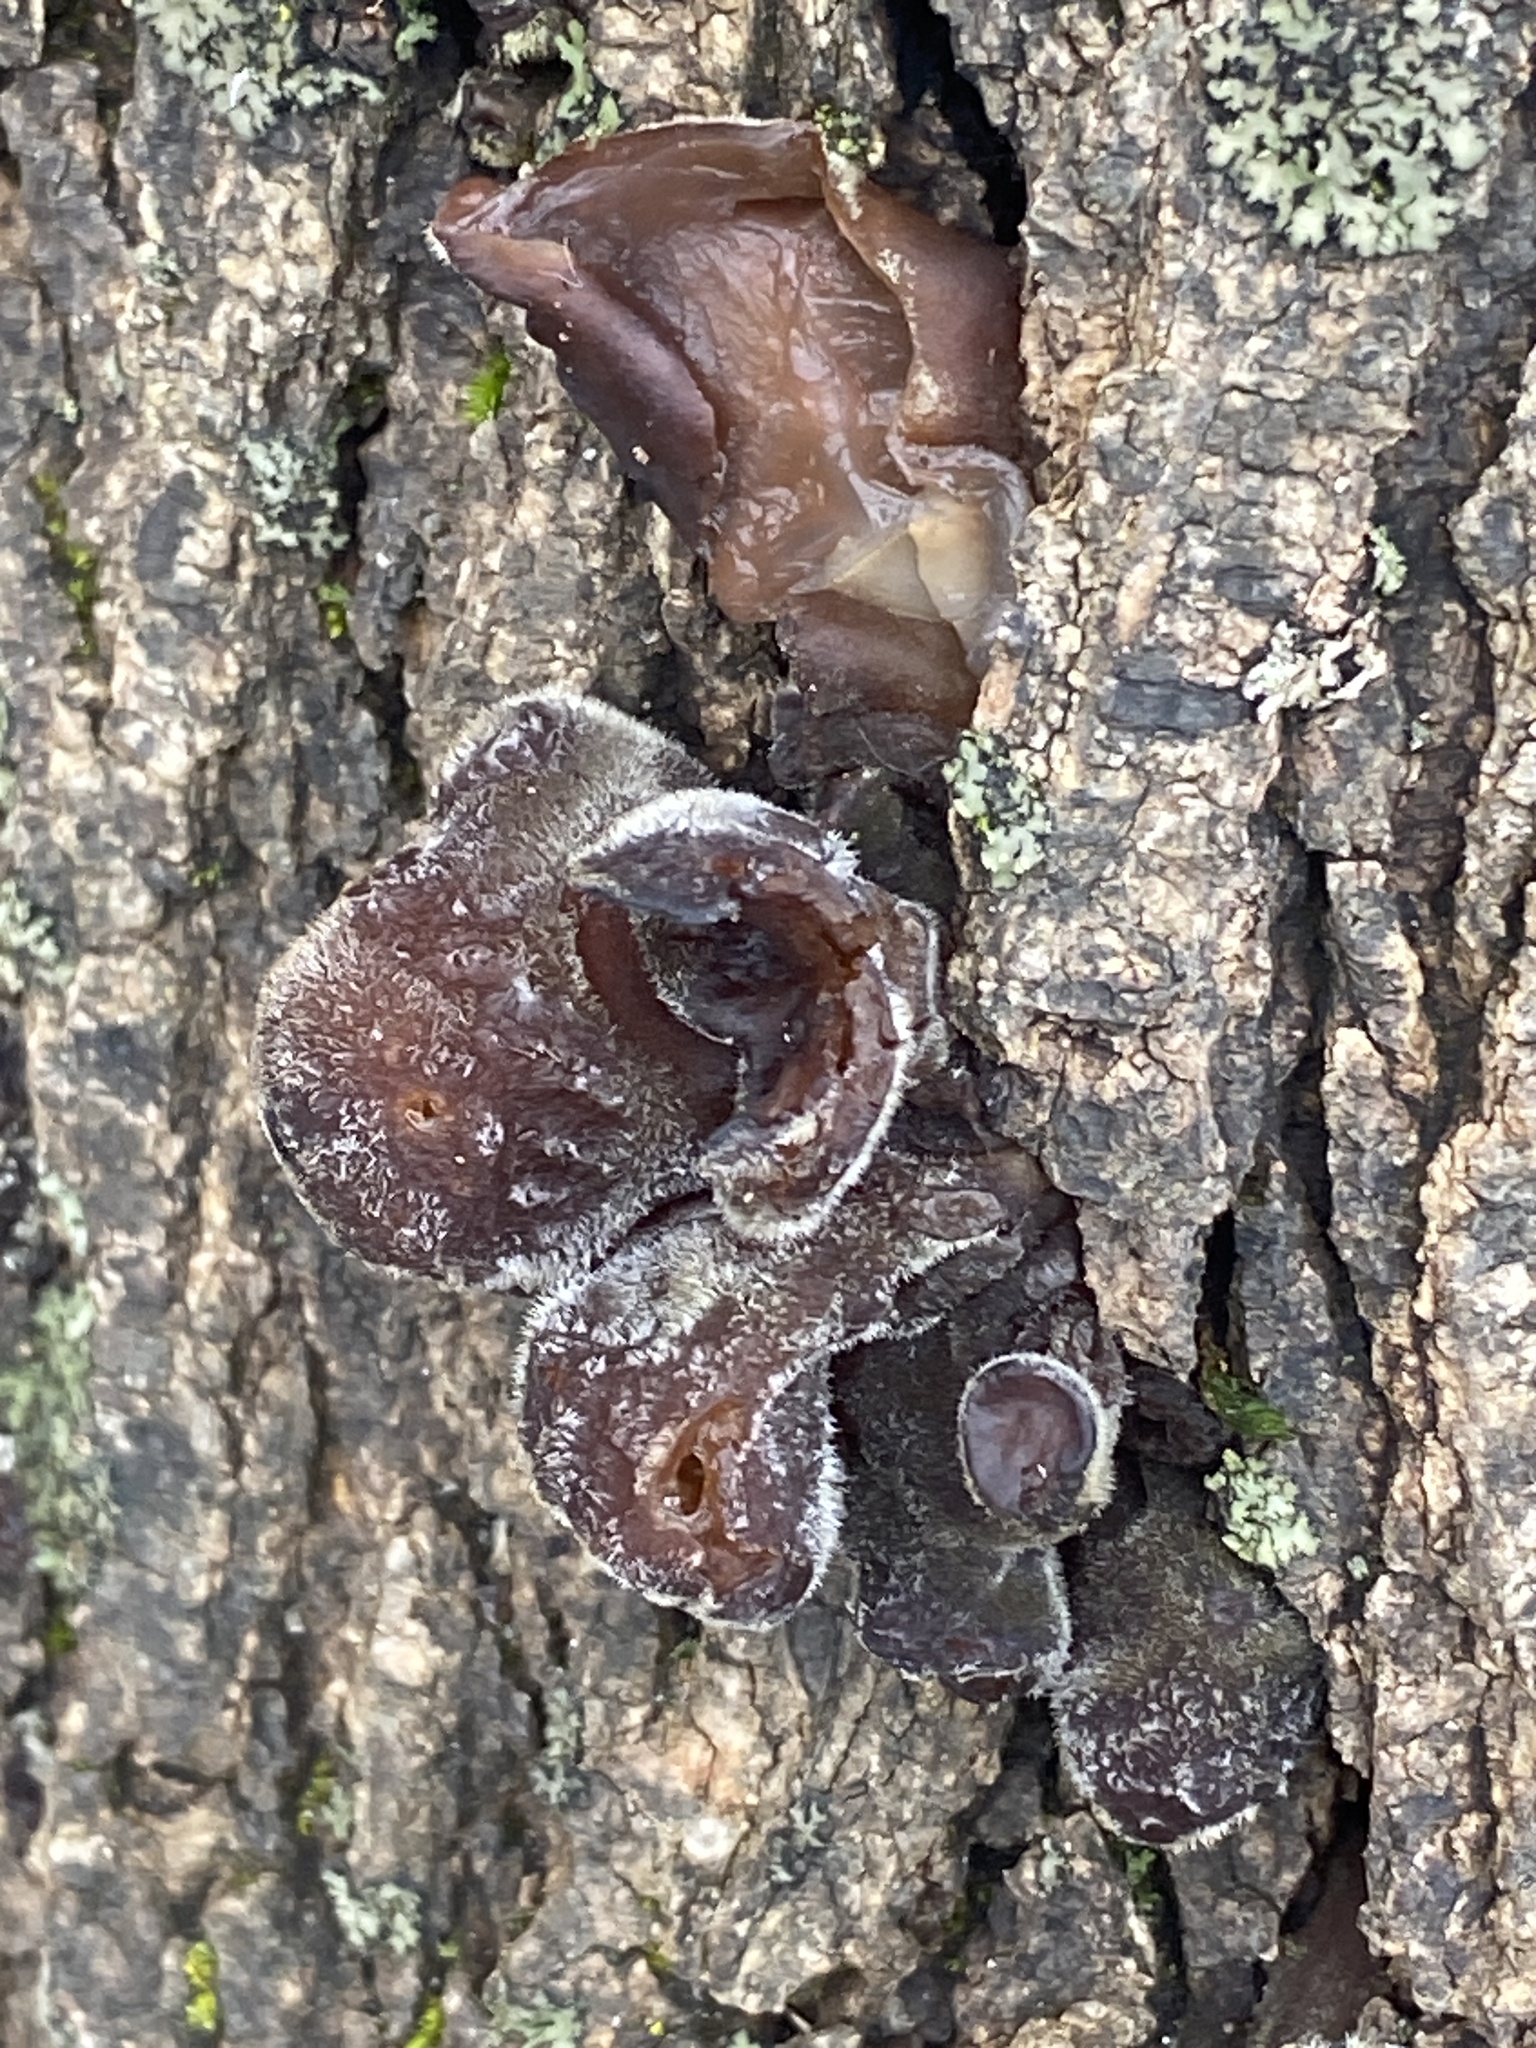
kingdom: Fungi
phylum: Basidiomycota
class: Agaricomycetes
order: Auriculariales
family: Auriculariaceae
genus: Auricularia
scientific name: Auricularia nigricans
